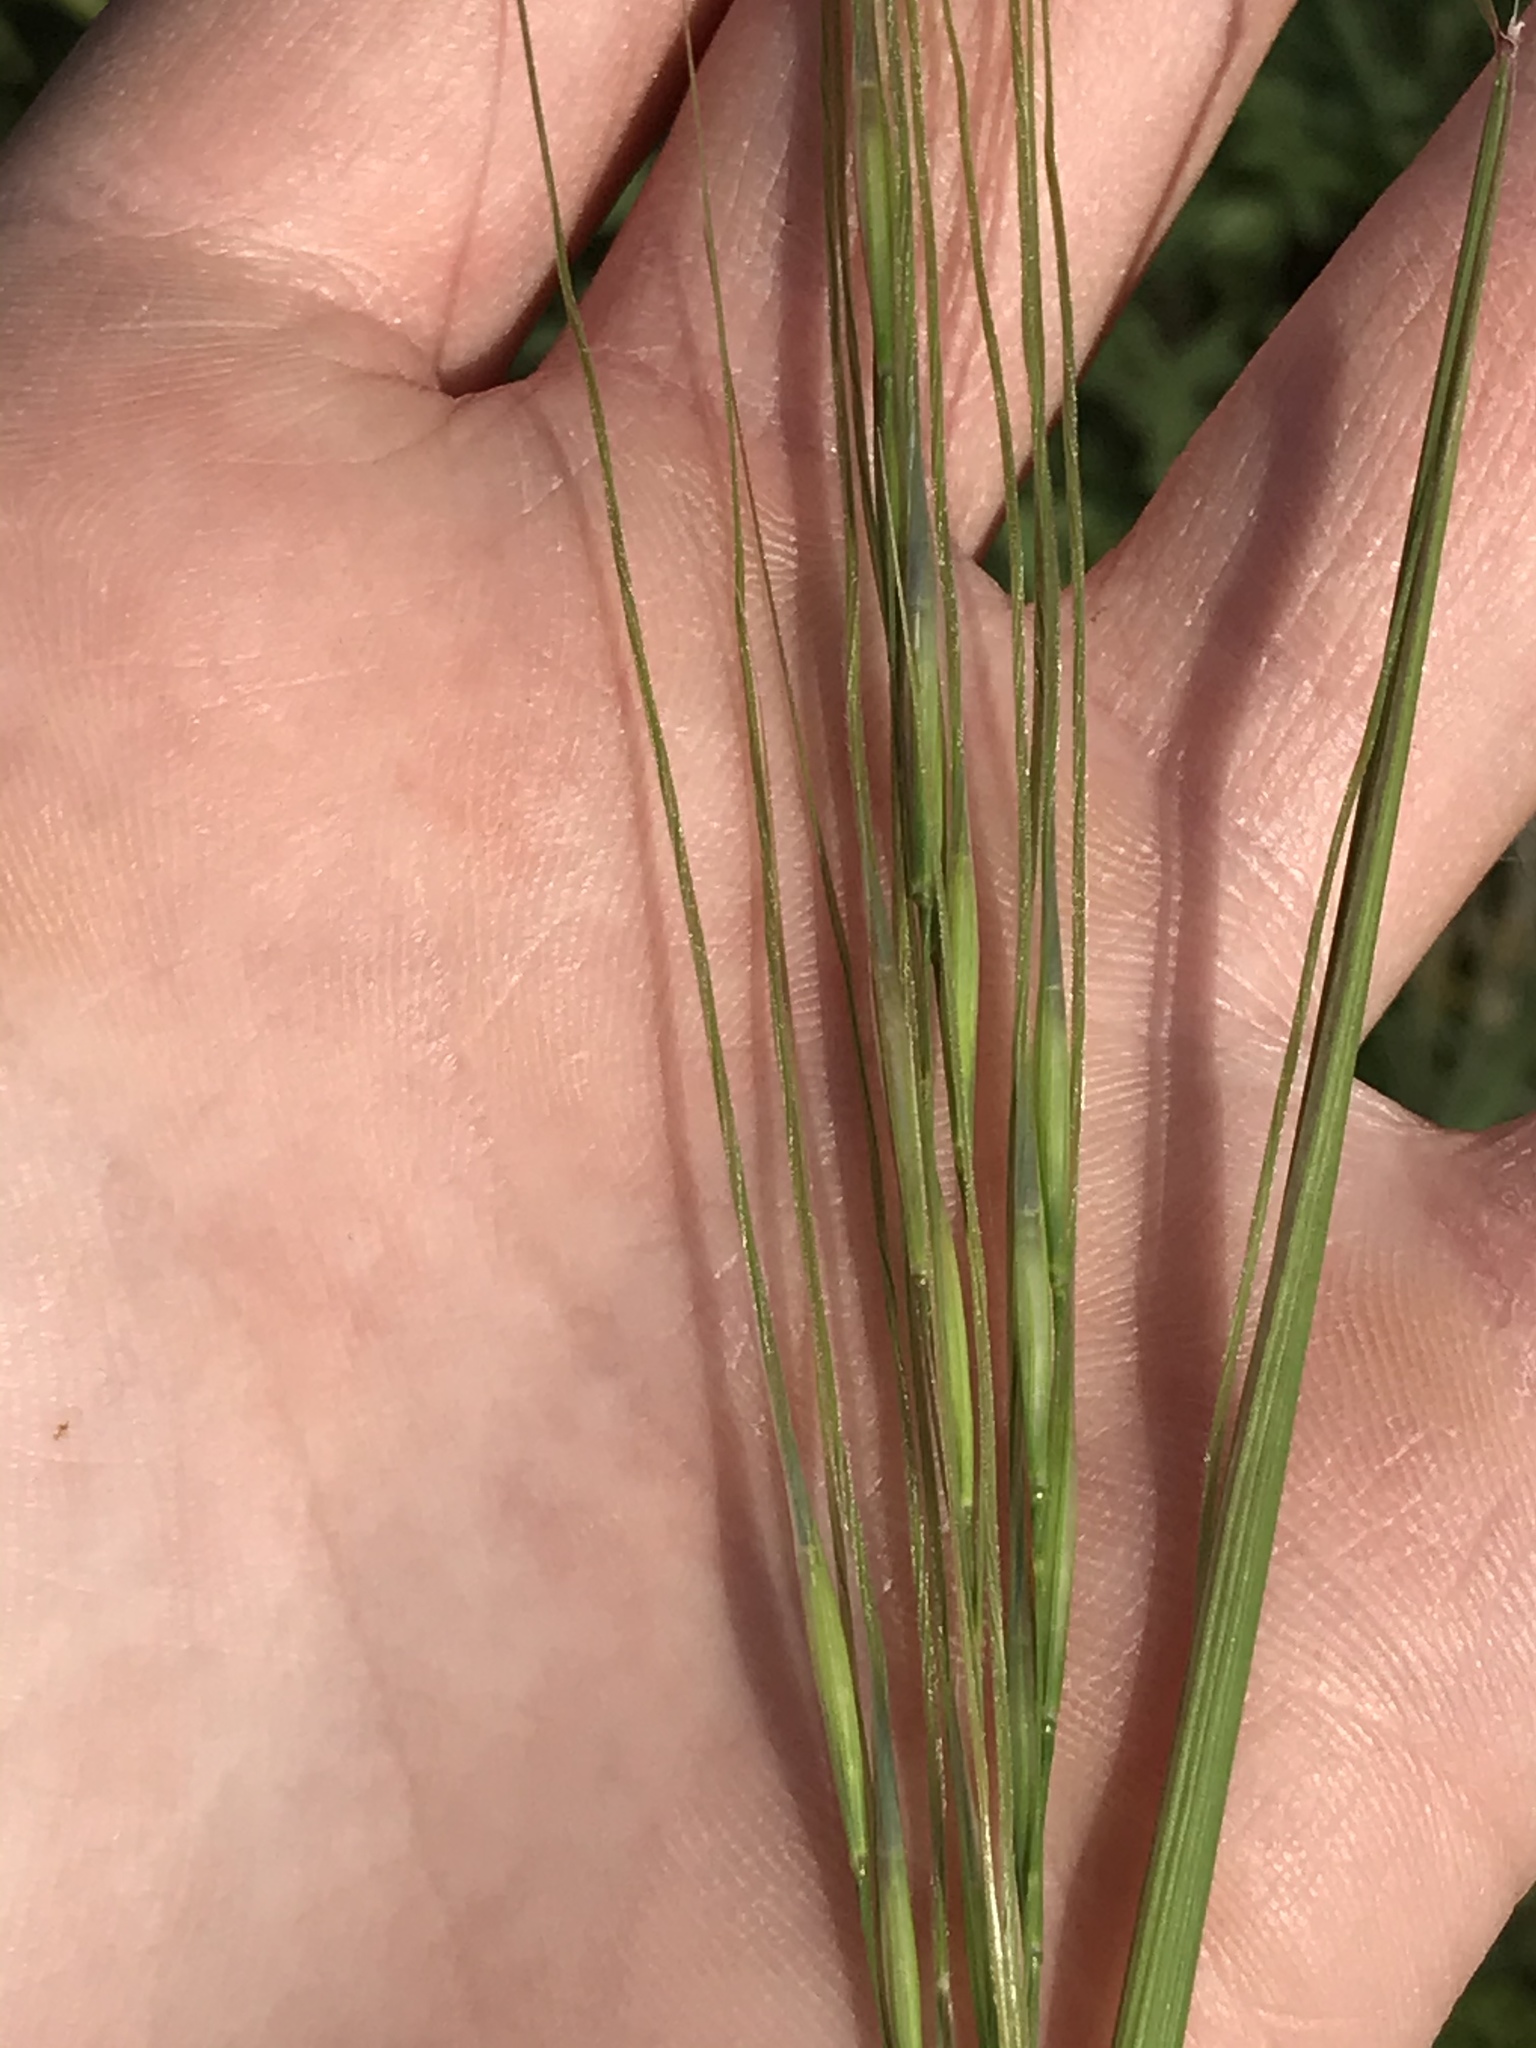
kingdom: Plantae
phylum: Tracheophyta
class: Liliopsida
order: Poales
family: Poaceae
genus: Nassella
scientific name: Nassella leucotricha
